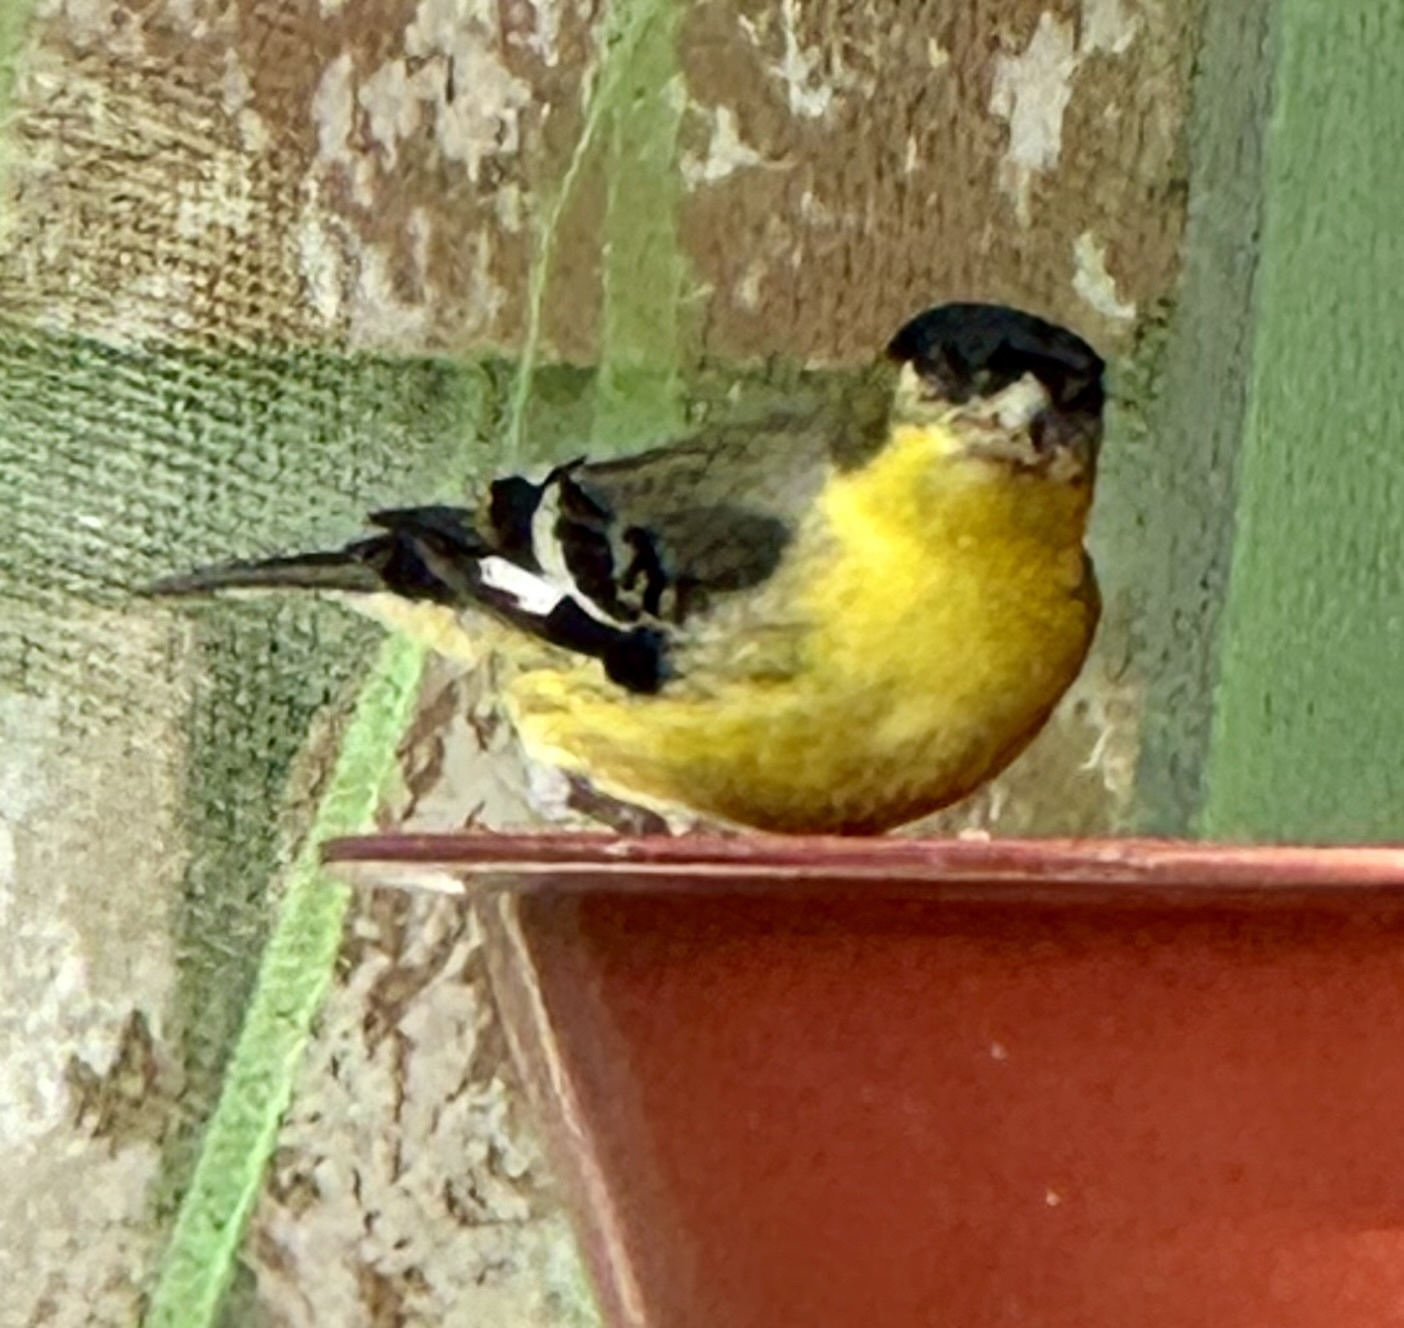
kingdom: Animalia
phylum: Chordata
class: Aves
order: Passeriformes
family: Fringillidae
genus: Spinus
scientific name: Spinus psaltria
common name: Lesser goldfinch
